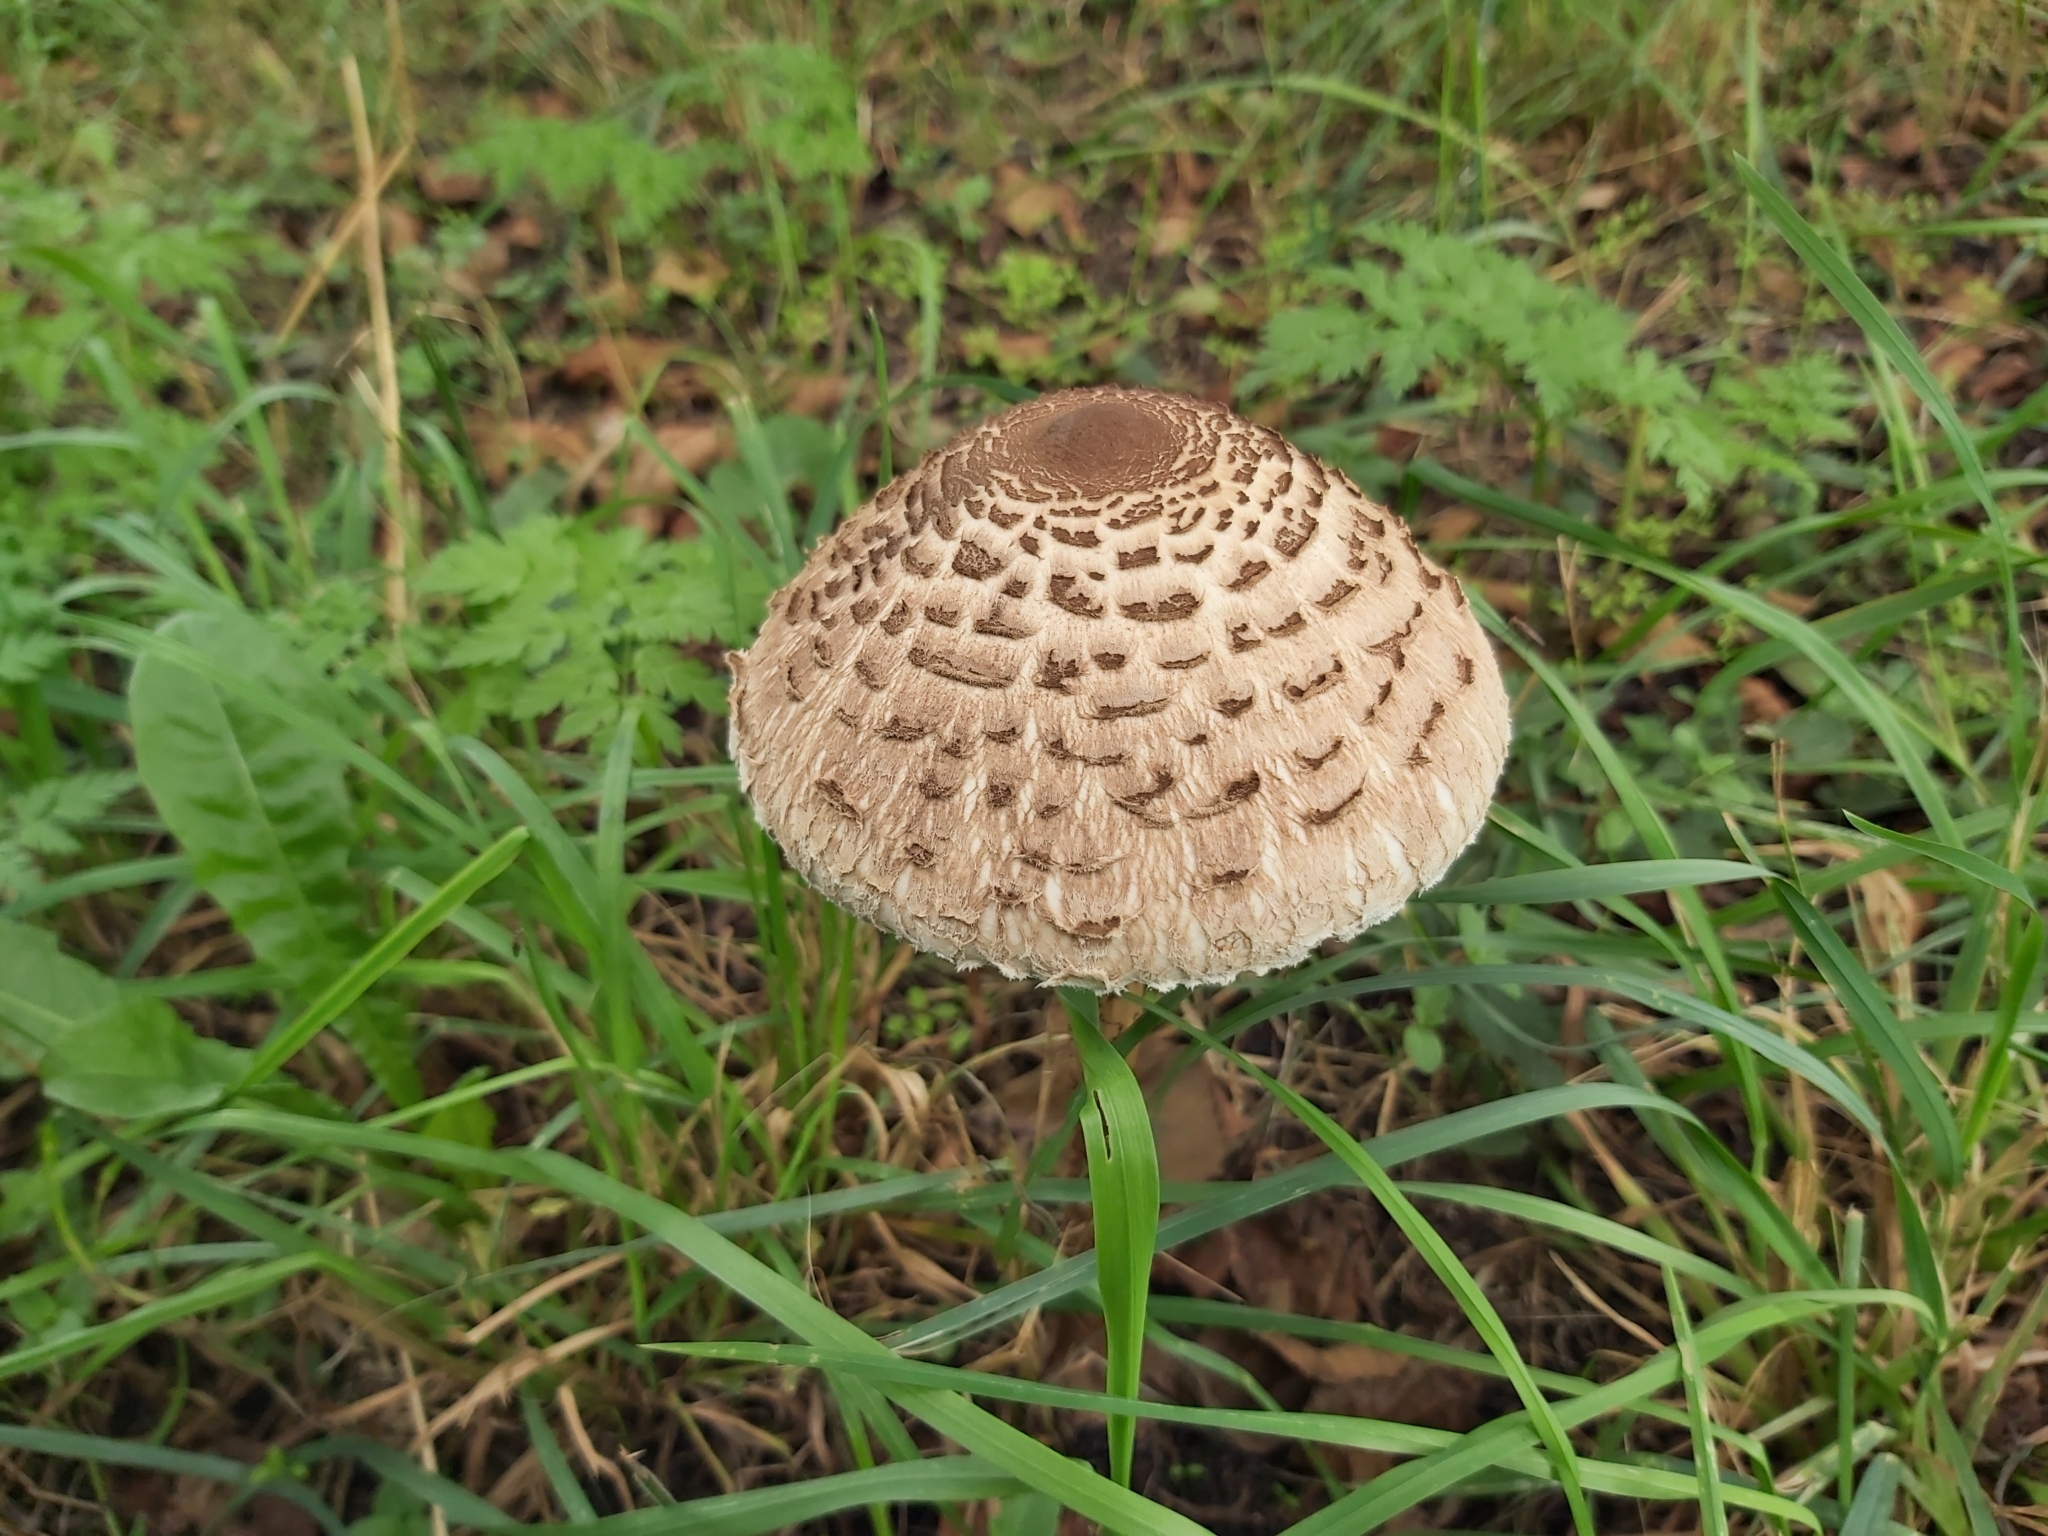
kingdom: Fungi
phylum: Basidiomycota
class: Agaricomycetes
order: Agaricales
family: Agaricaceae
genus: Macrolepiota
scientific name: Macrolepiota procera
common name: Parasol
